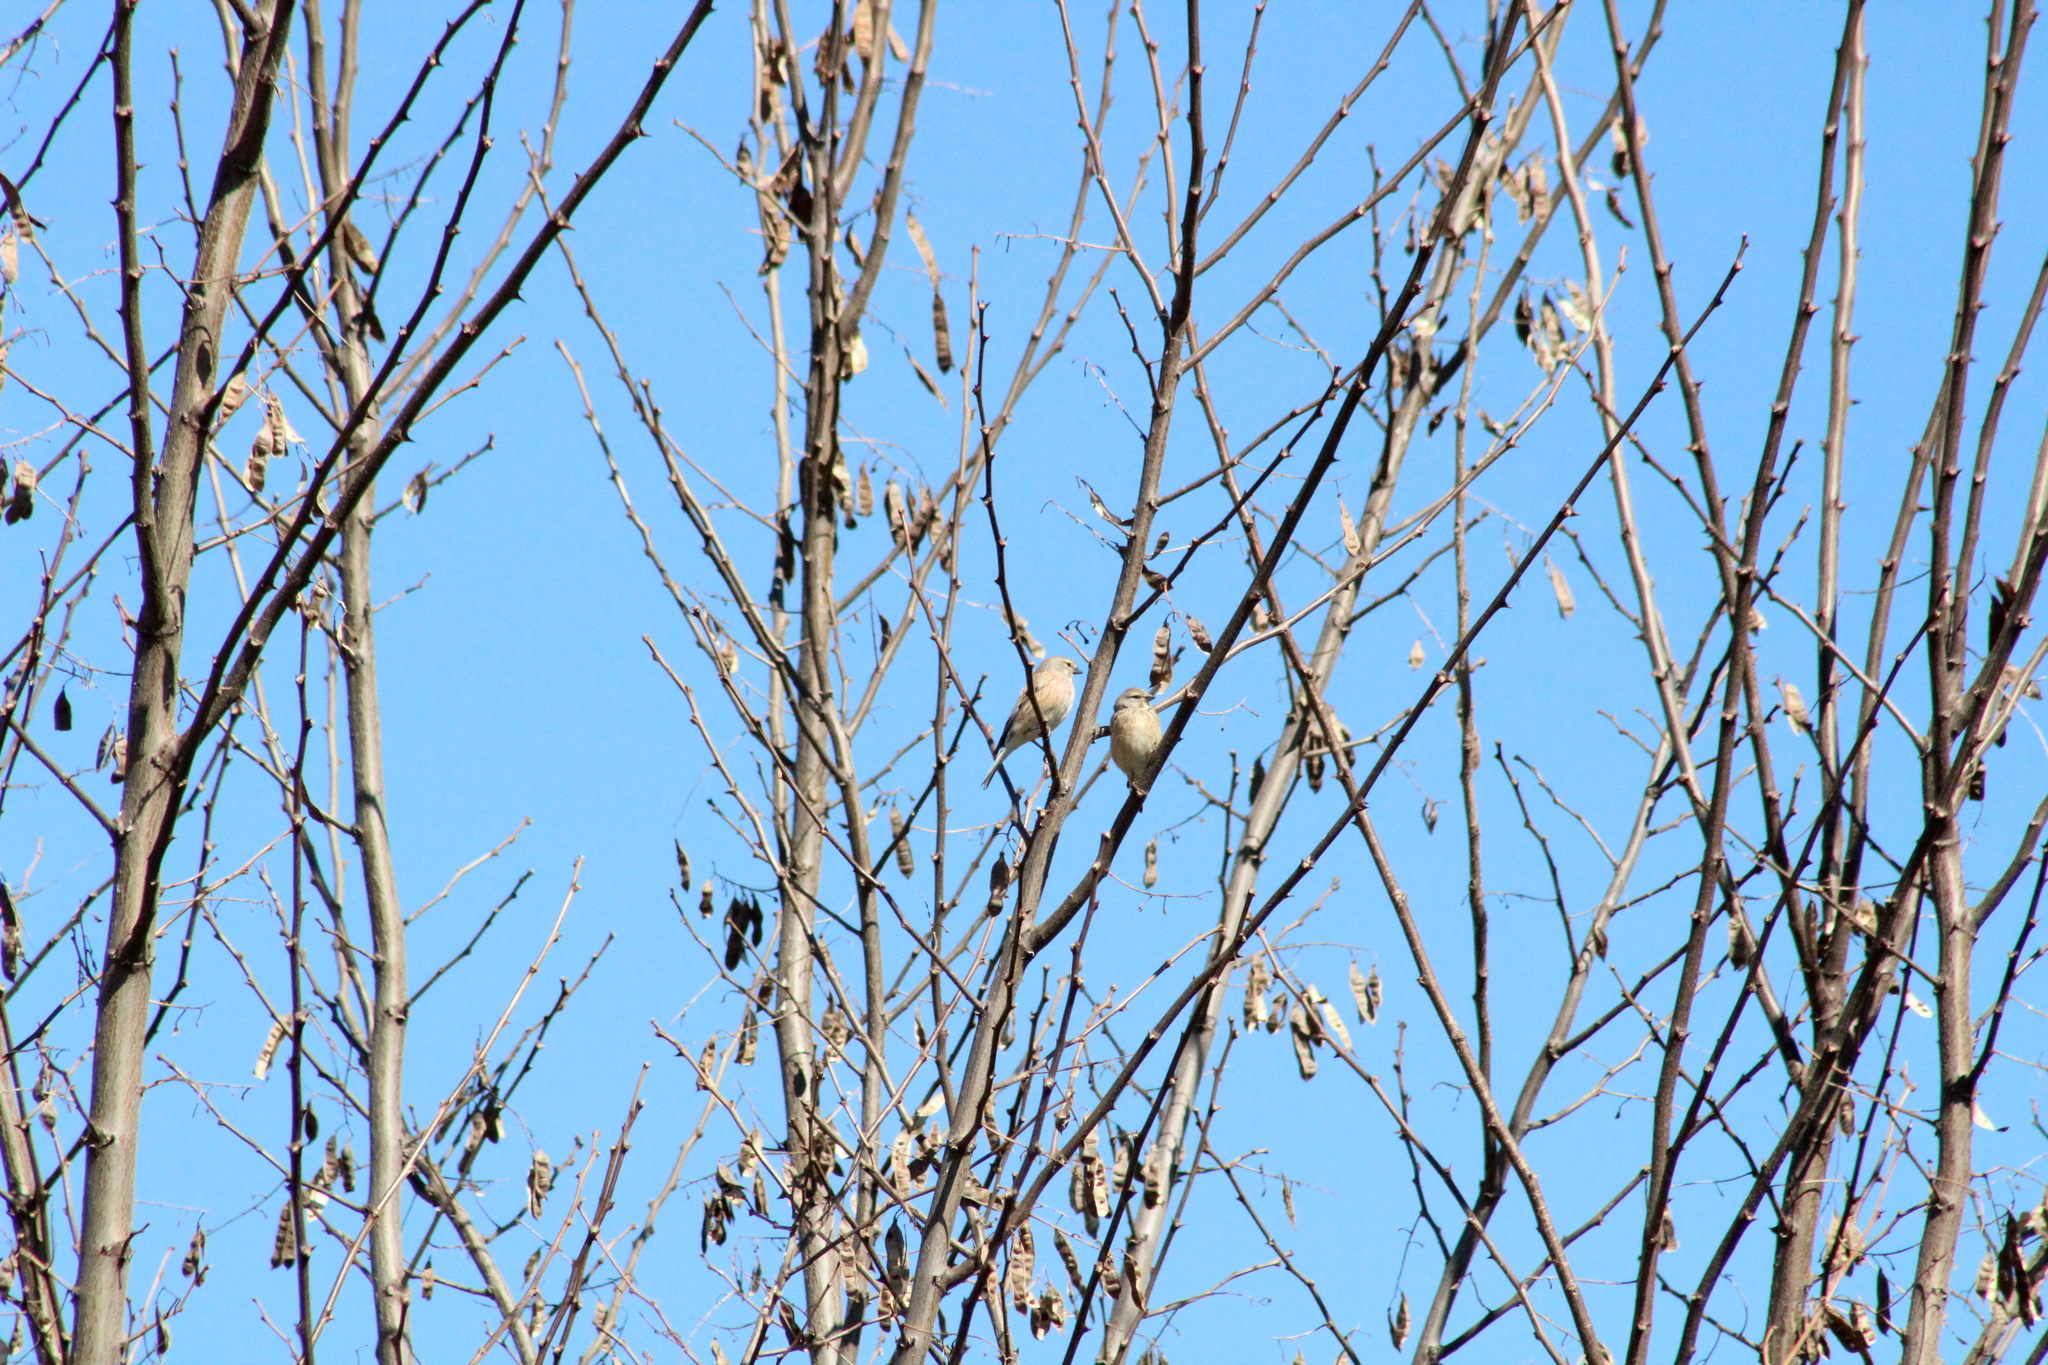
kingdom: Animalia
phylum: Chordata
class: Aves
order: Passeriformes
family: Fringillidae
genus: Linaria
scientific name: Linaria cannabina
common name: Common linnet
